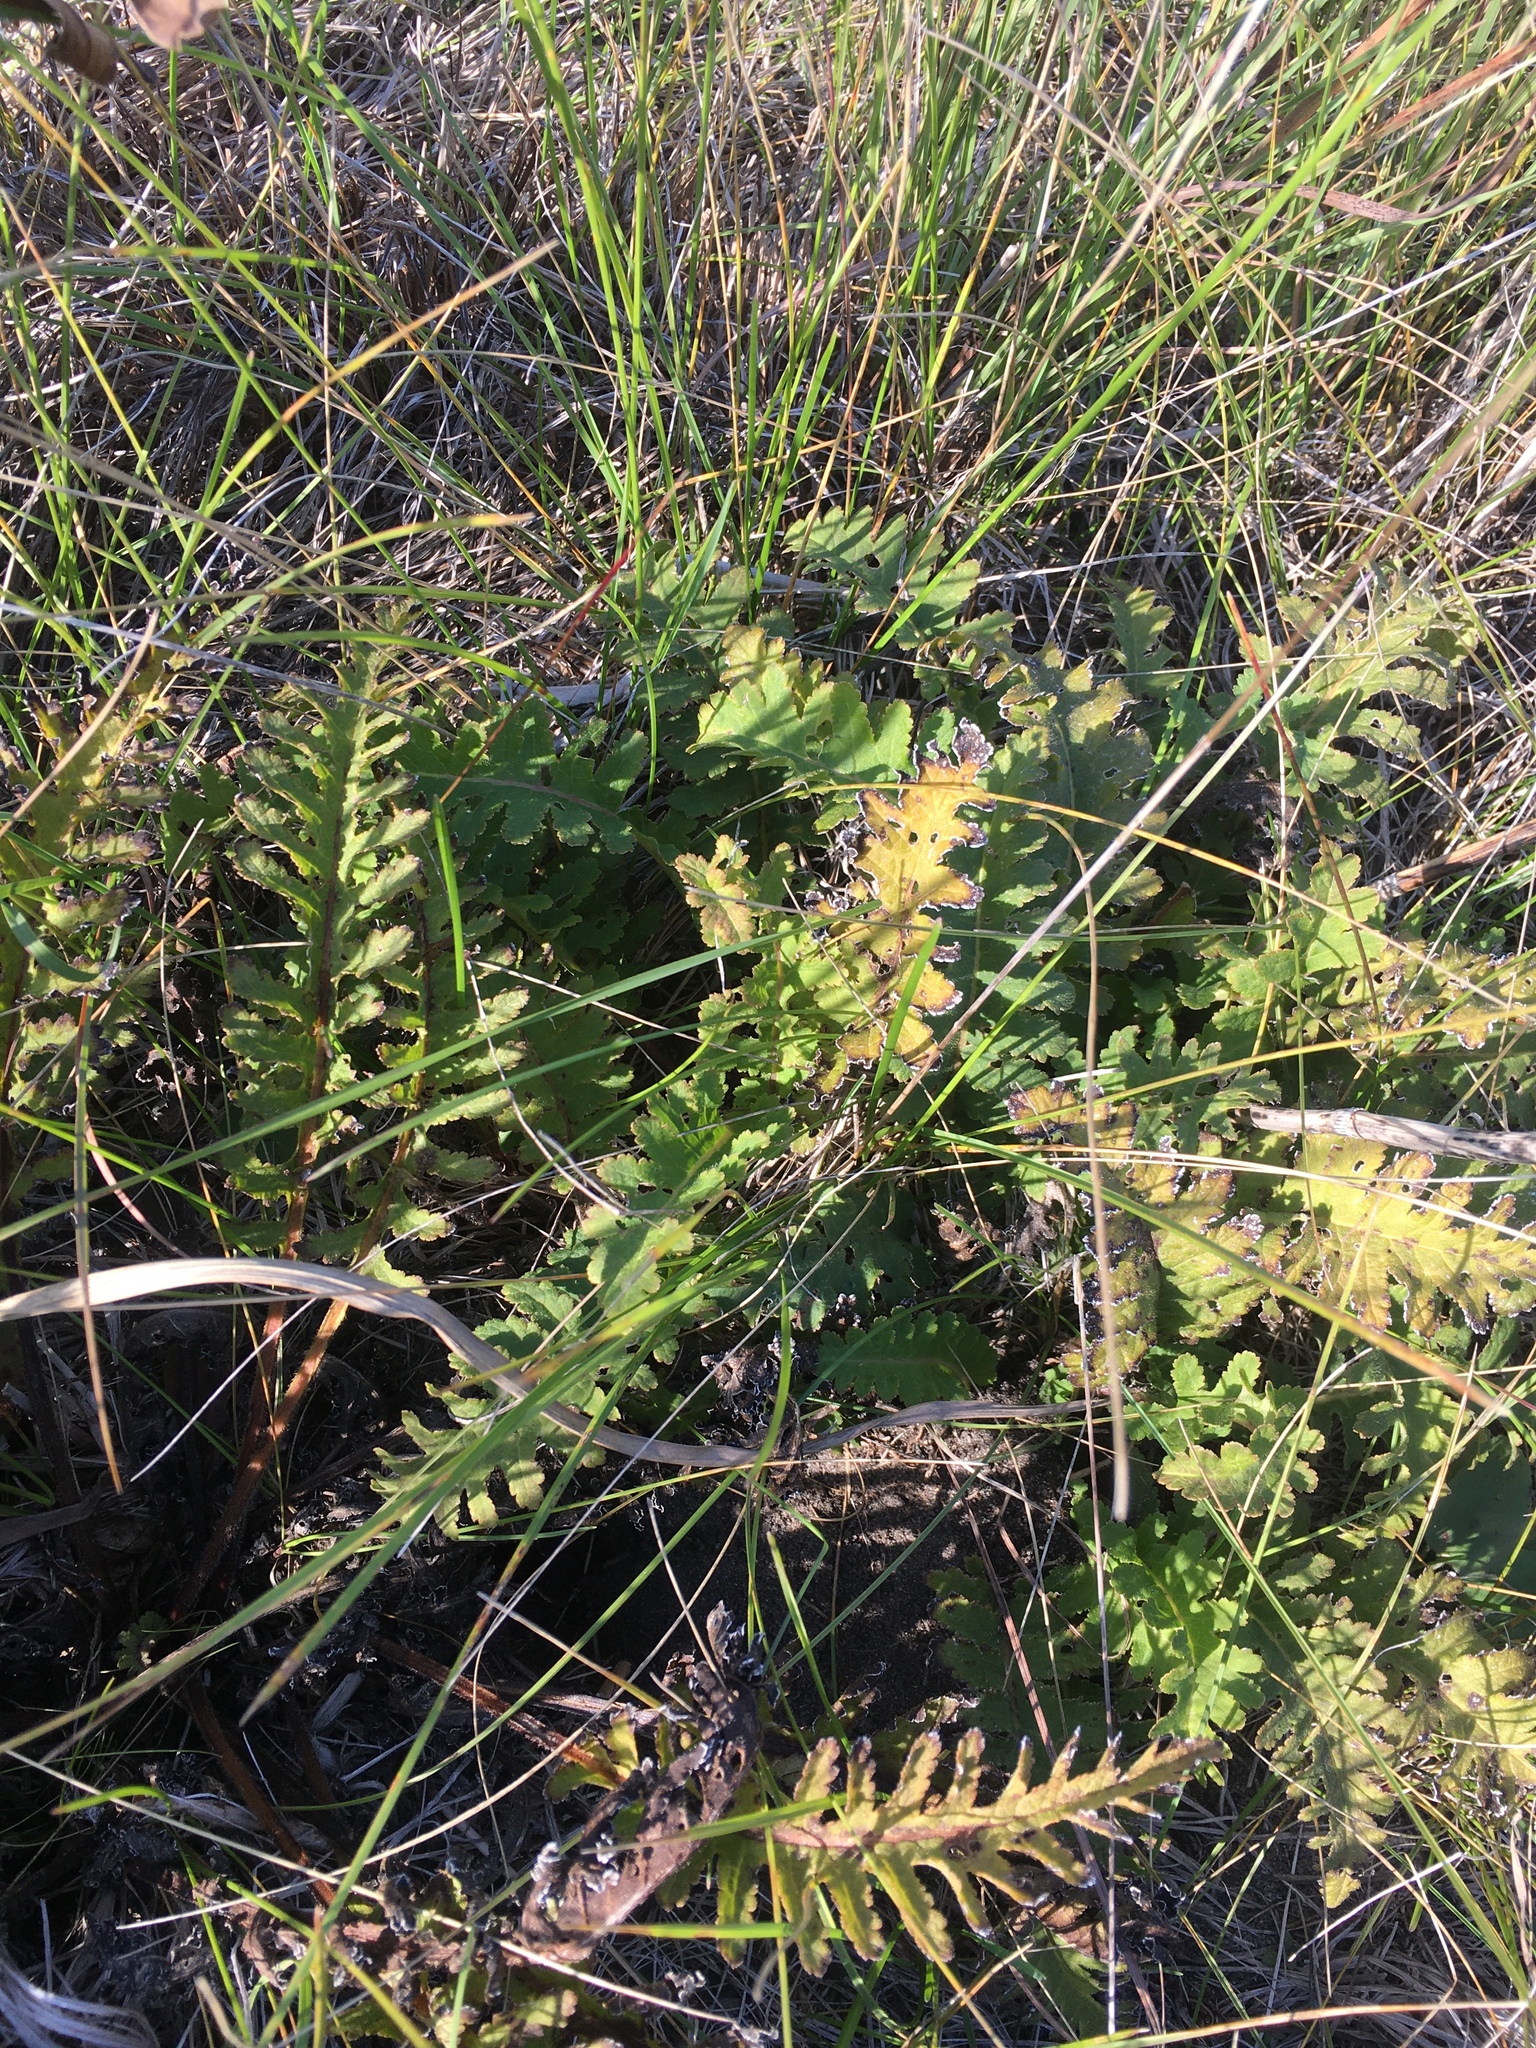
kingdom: Plantae
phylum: Tracheophyta
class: Magnoliopsida
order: Lamiales
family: Orobanchaceae
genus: Pedicularis
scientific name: Pedicularis canadensis
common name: Early lousewort
